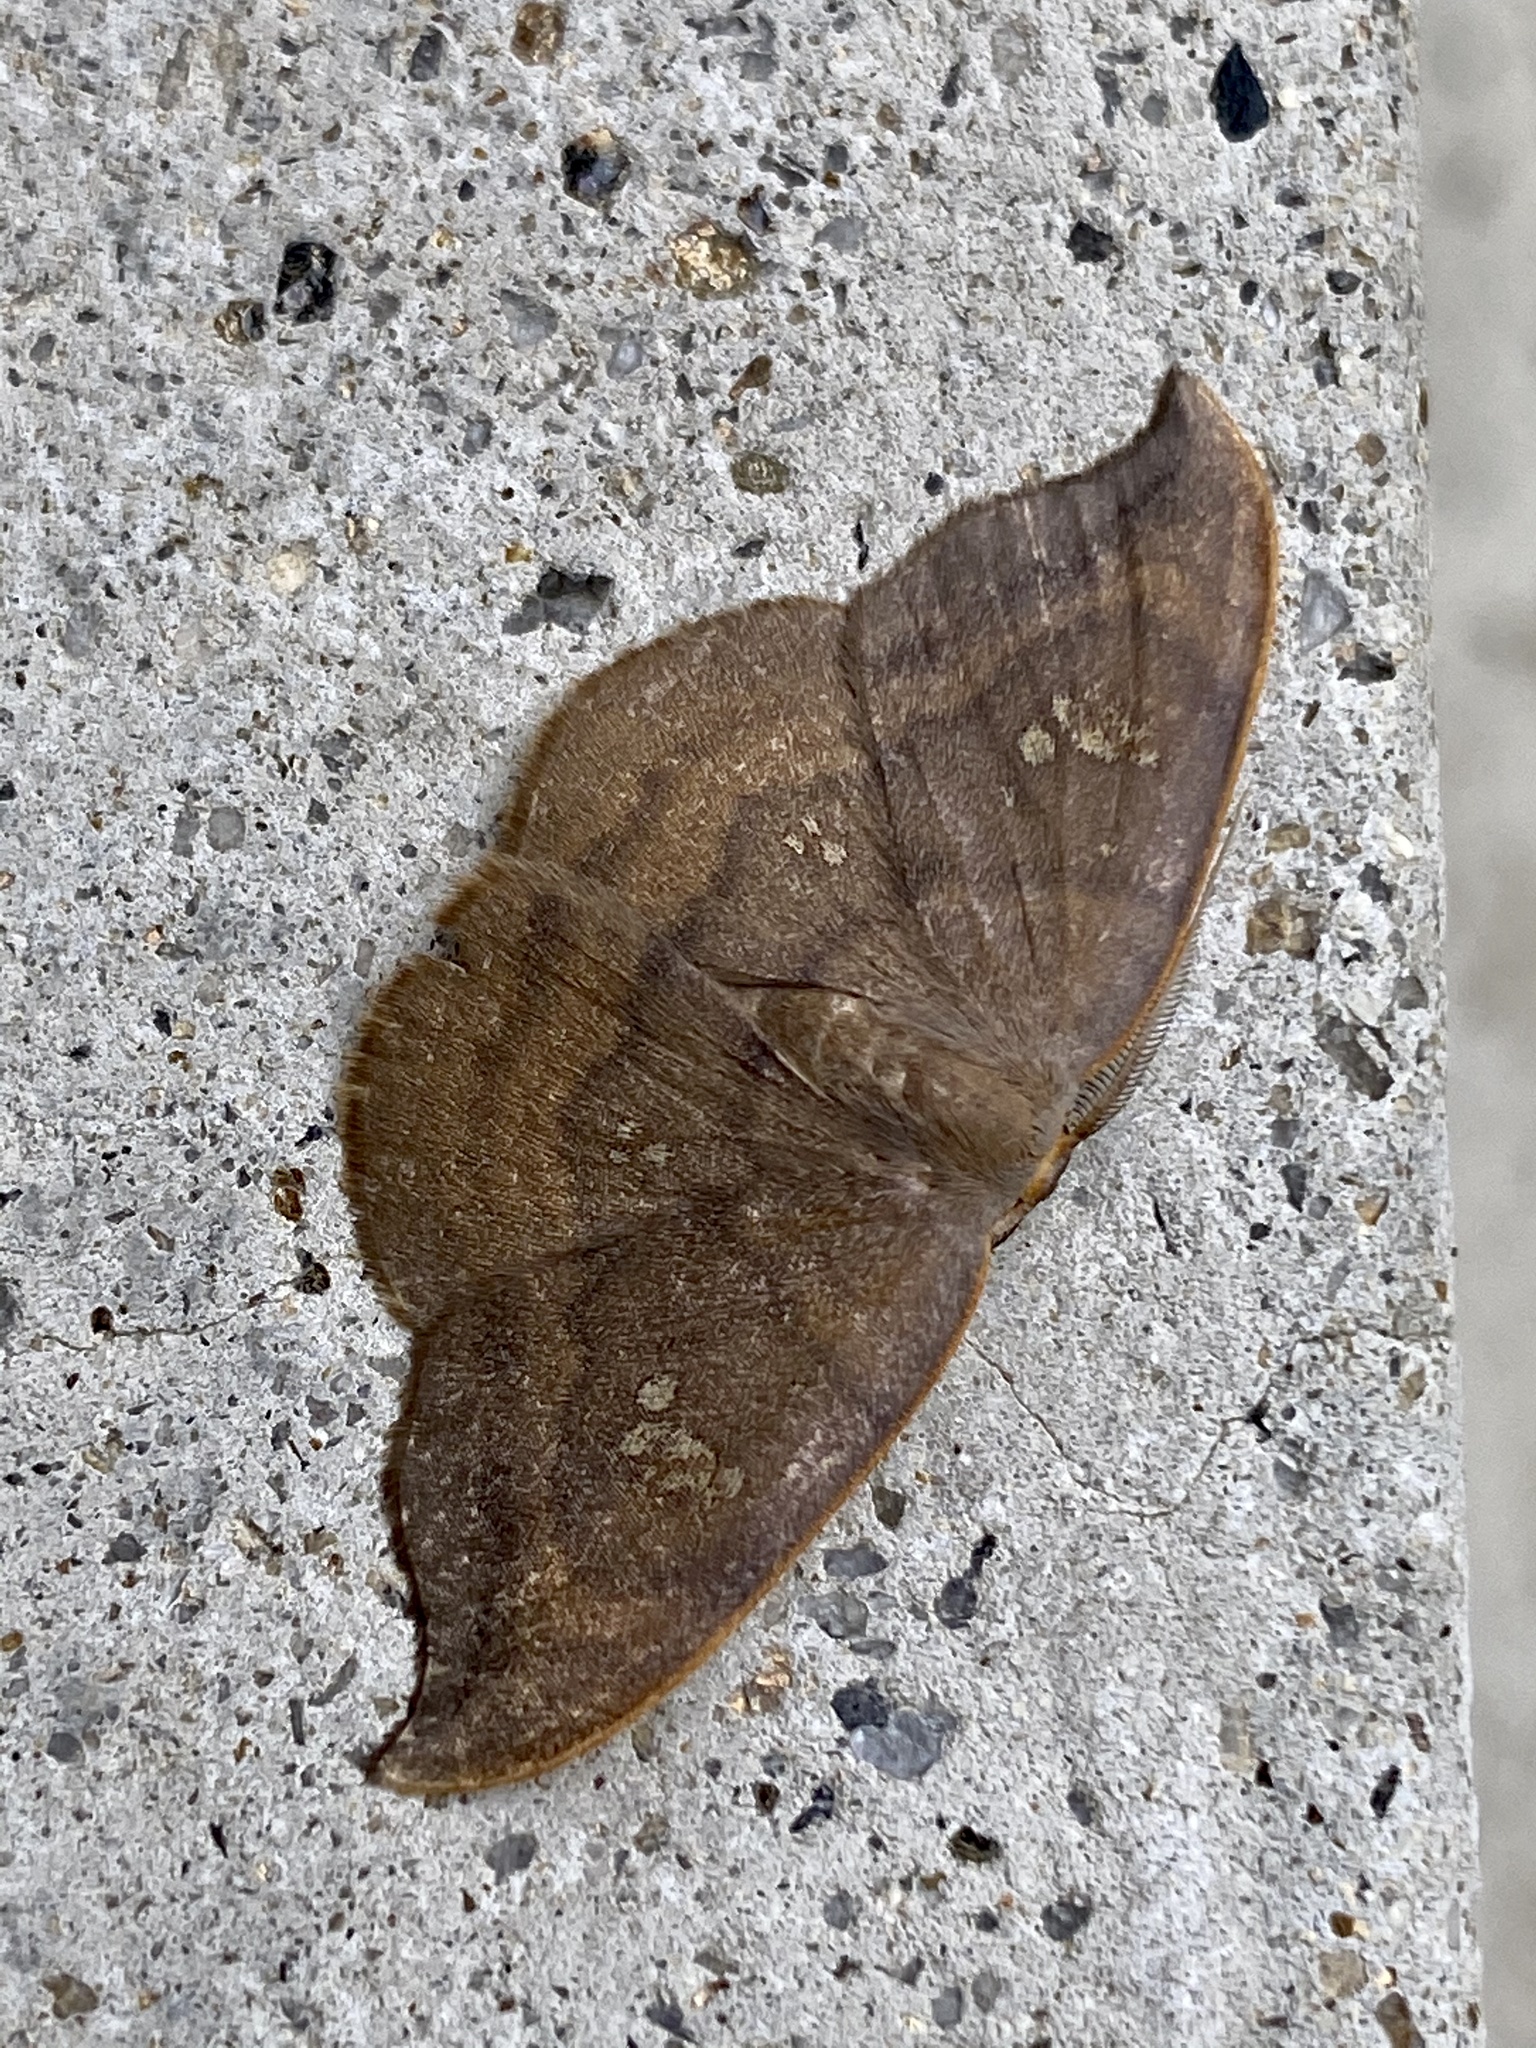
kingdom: Animalia
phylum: Arthropoda
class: Insecta
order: Lepidoptera
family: Drepanidae
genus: Agnidra
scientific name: Agnidra scabiosa
